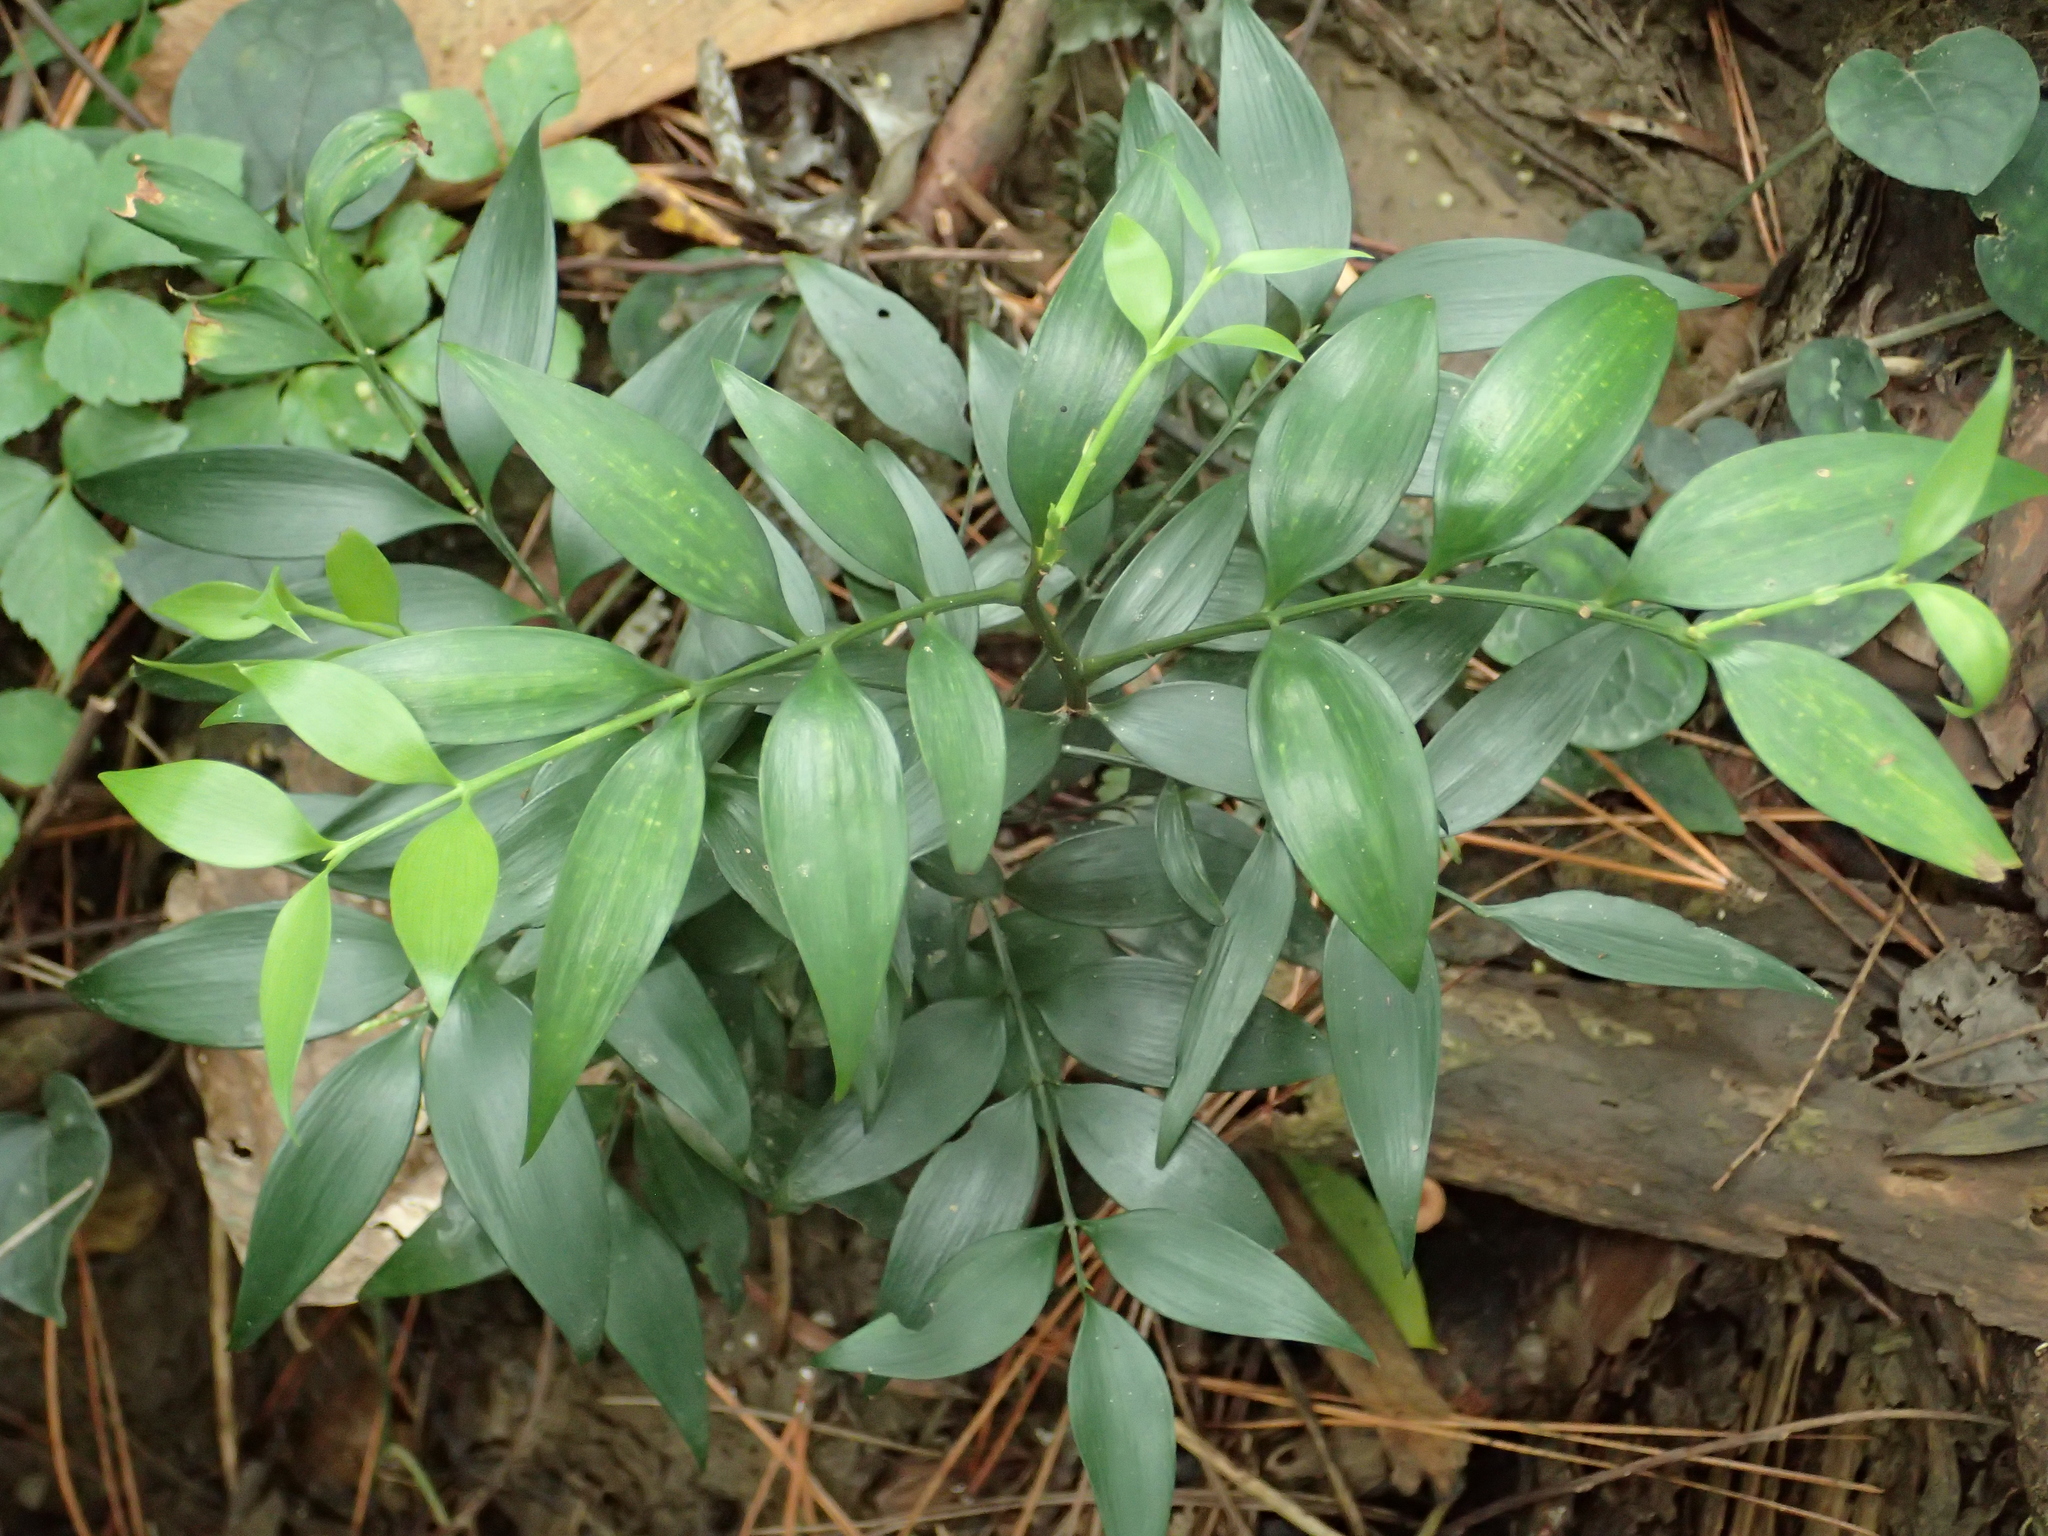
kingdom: Plantae
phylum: Tracheophyta
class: Pinopsida
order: Pinales
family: Podocarpaceae
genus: Nageia
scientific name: Nageia nagi
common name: Kaphal
